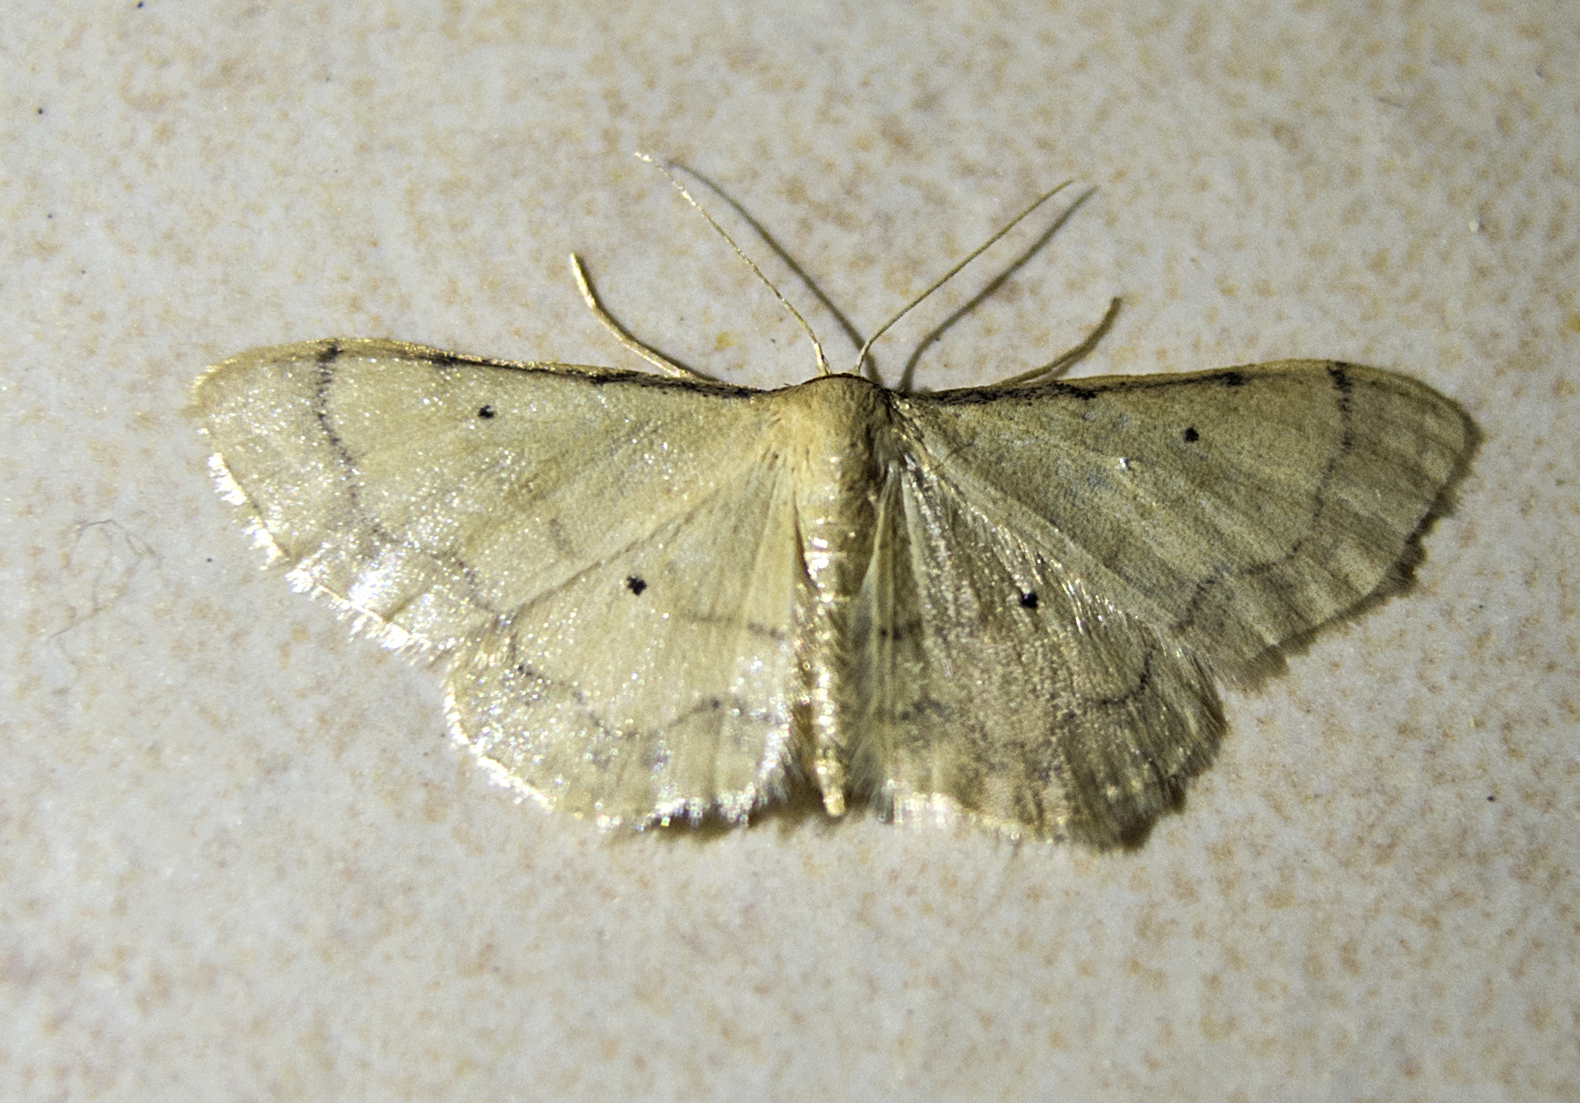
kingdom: Animalia
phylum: Arthropoda
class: Insecta
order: Lepidoptera
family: Geometridae
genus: Idaea
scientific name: Idaea politaria
